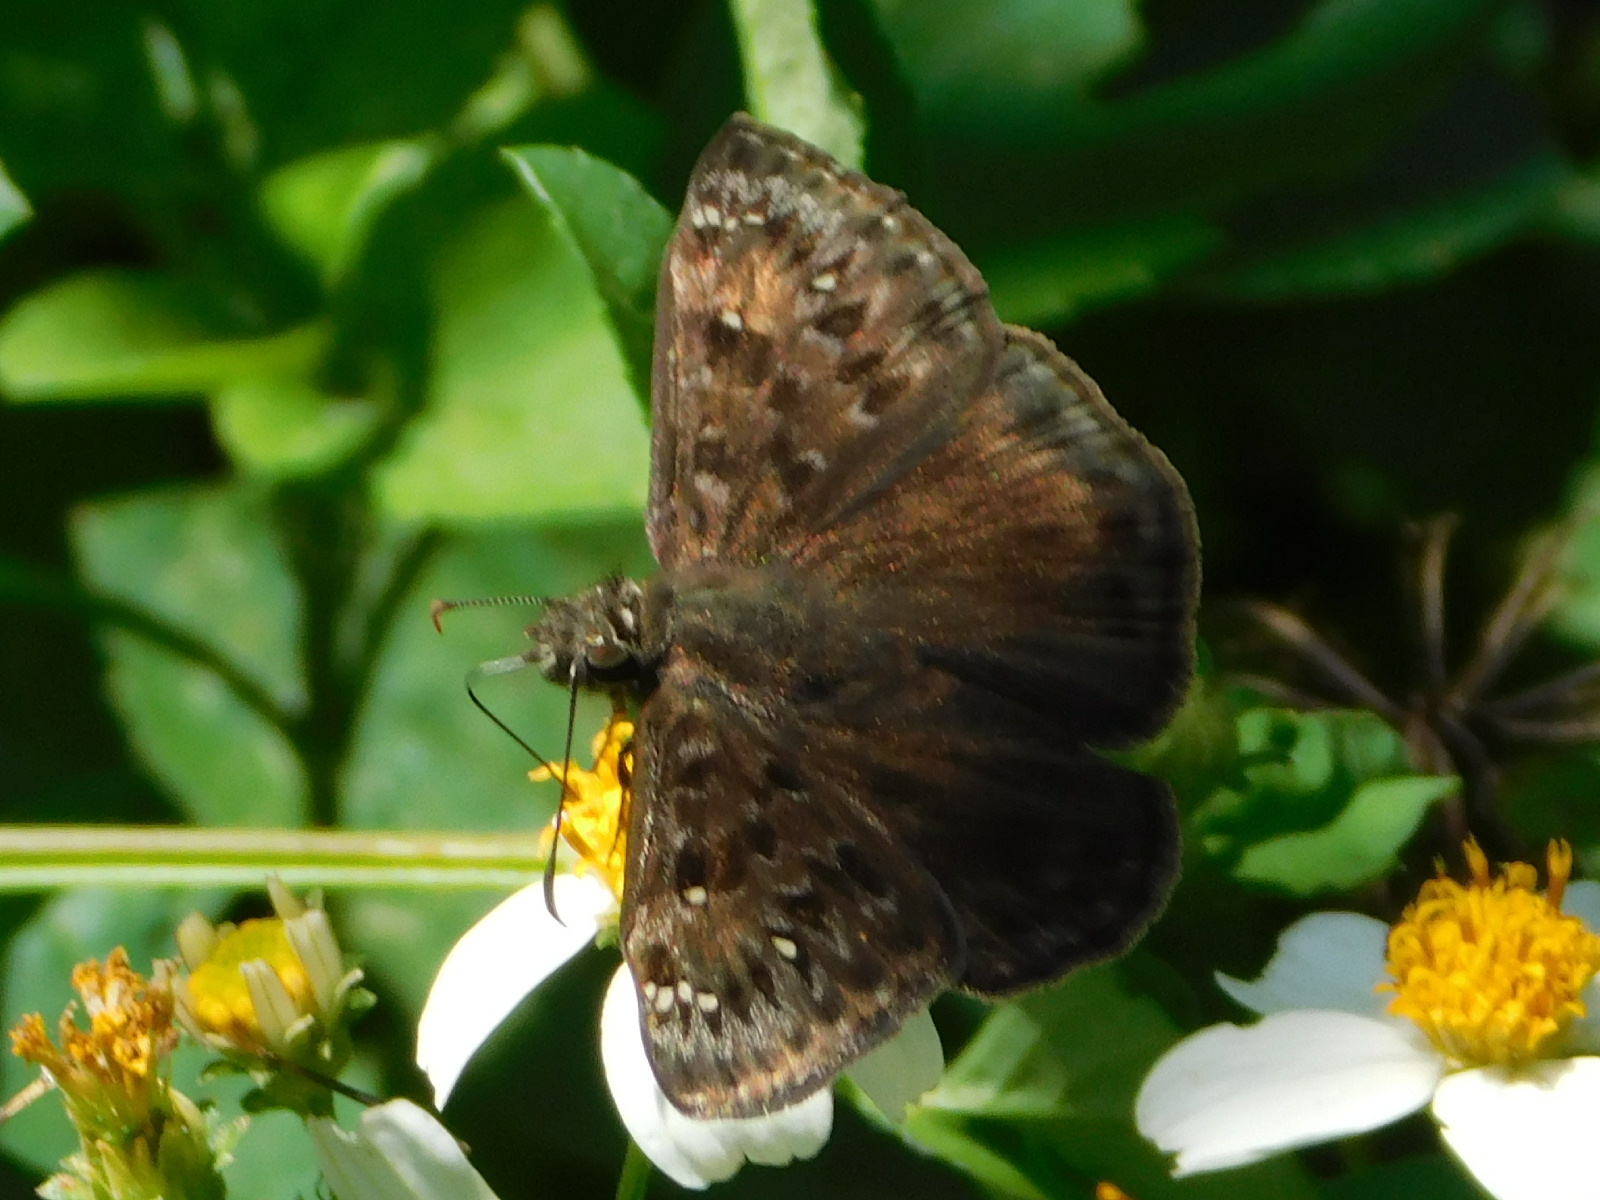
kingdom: Animalia
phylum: Arthropoda
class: Insecta
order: Lepidoptera
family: Hesperiidae
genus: Erynnis
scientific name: Erynnis horatius
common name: Horace's duskywing
